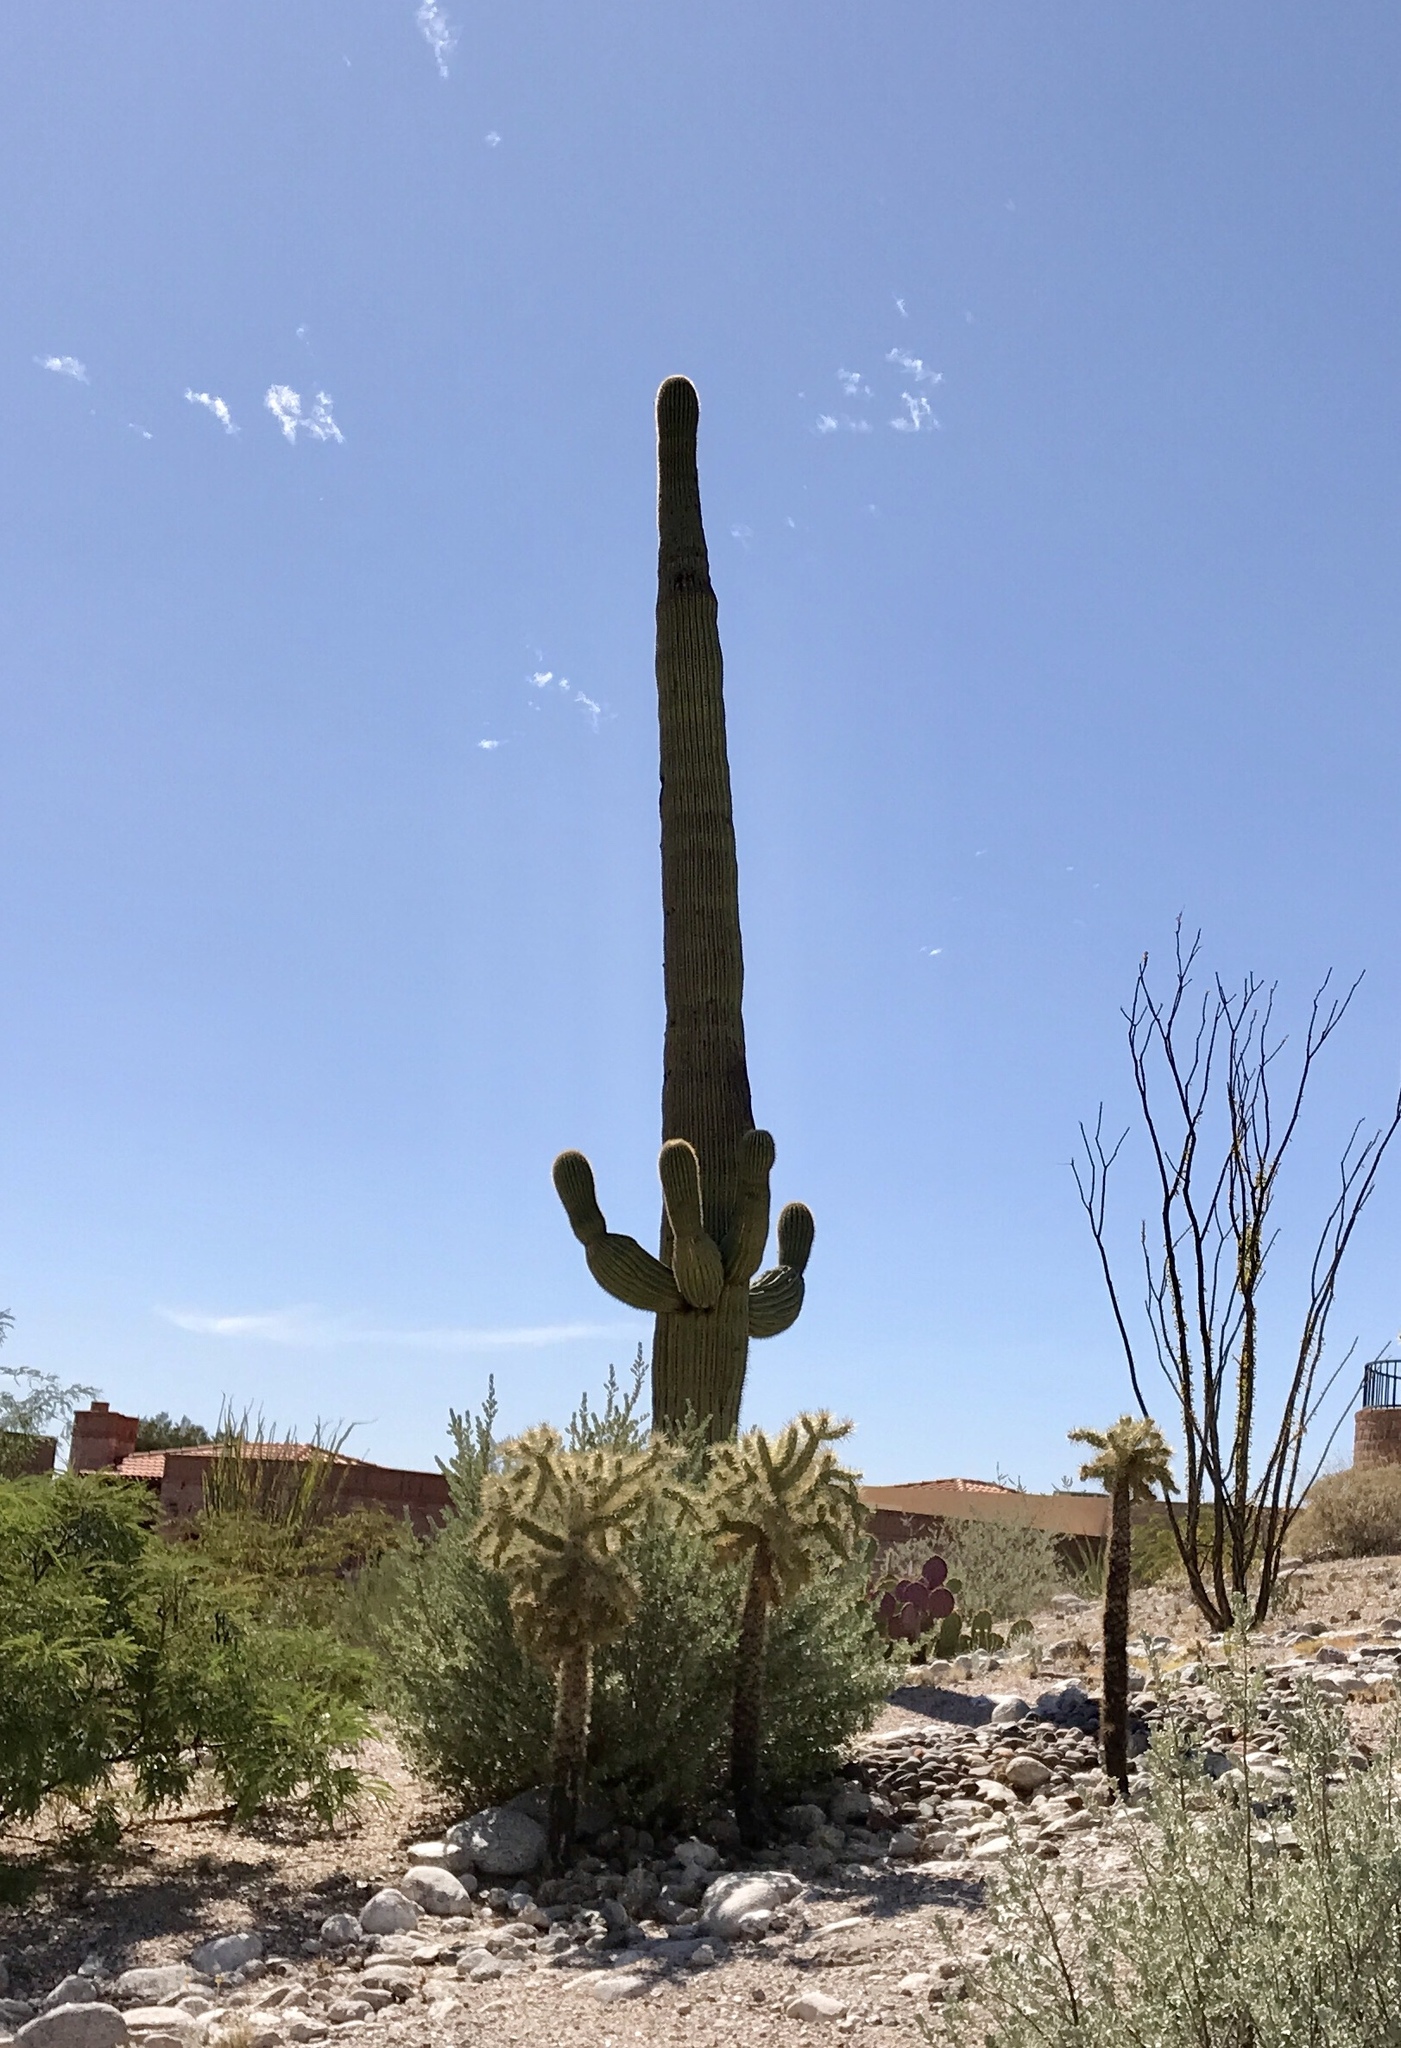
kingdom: Plantae
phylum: Tracheophyta
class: Magnoliopsida
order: Caryophyllales
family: Cactaceae
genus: Carnegiea
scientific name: Carnegiea gigantea
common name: Saguaro
